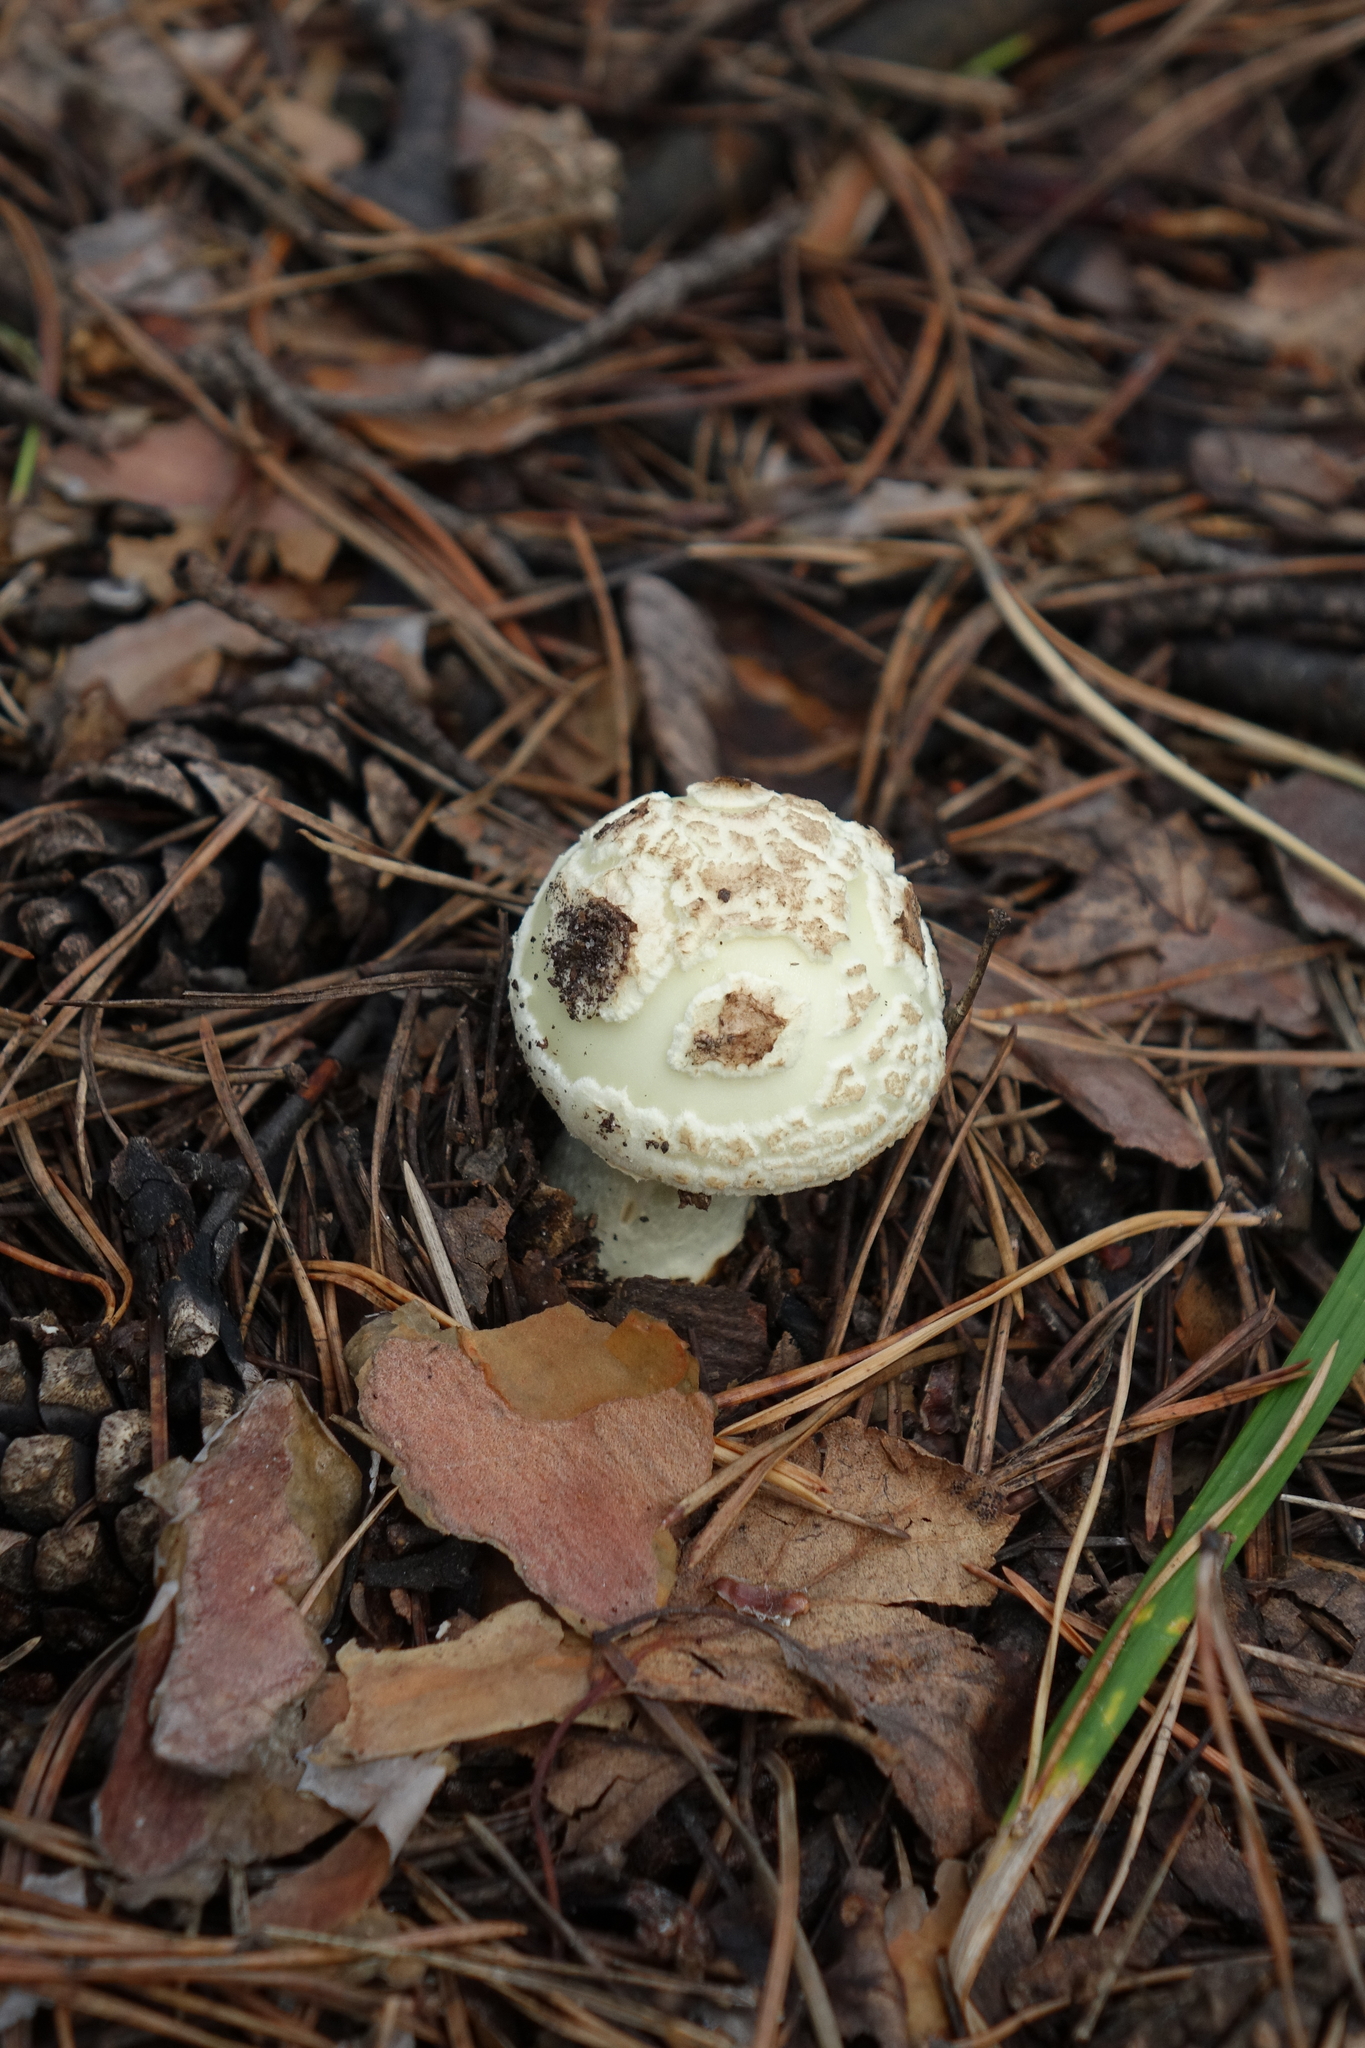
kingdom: Fungi
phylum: Basidiomycota
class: Agaricomycetes
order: Agaricales
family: Amanitaceae
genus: Amanita
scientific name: Amanita citrina
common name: False death-cap
